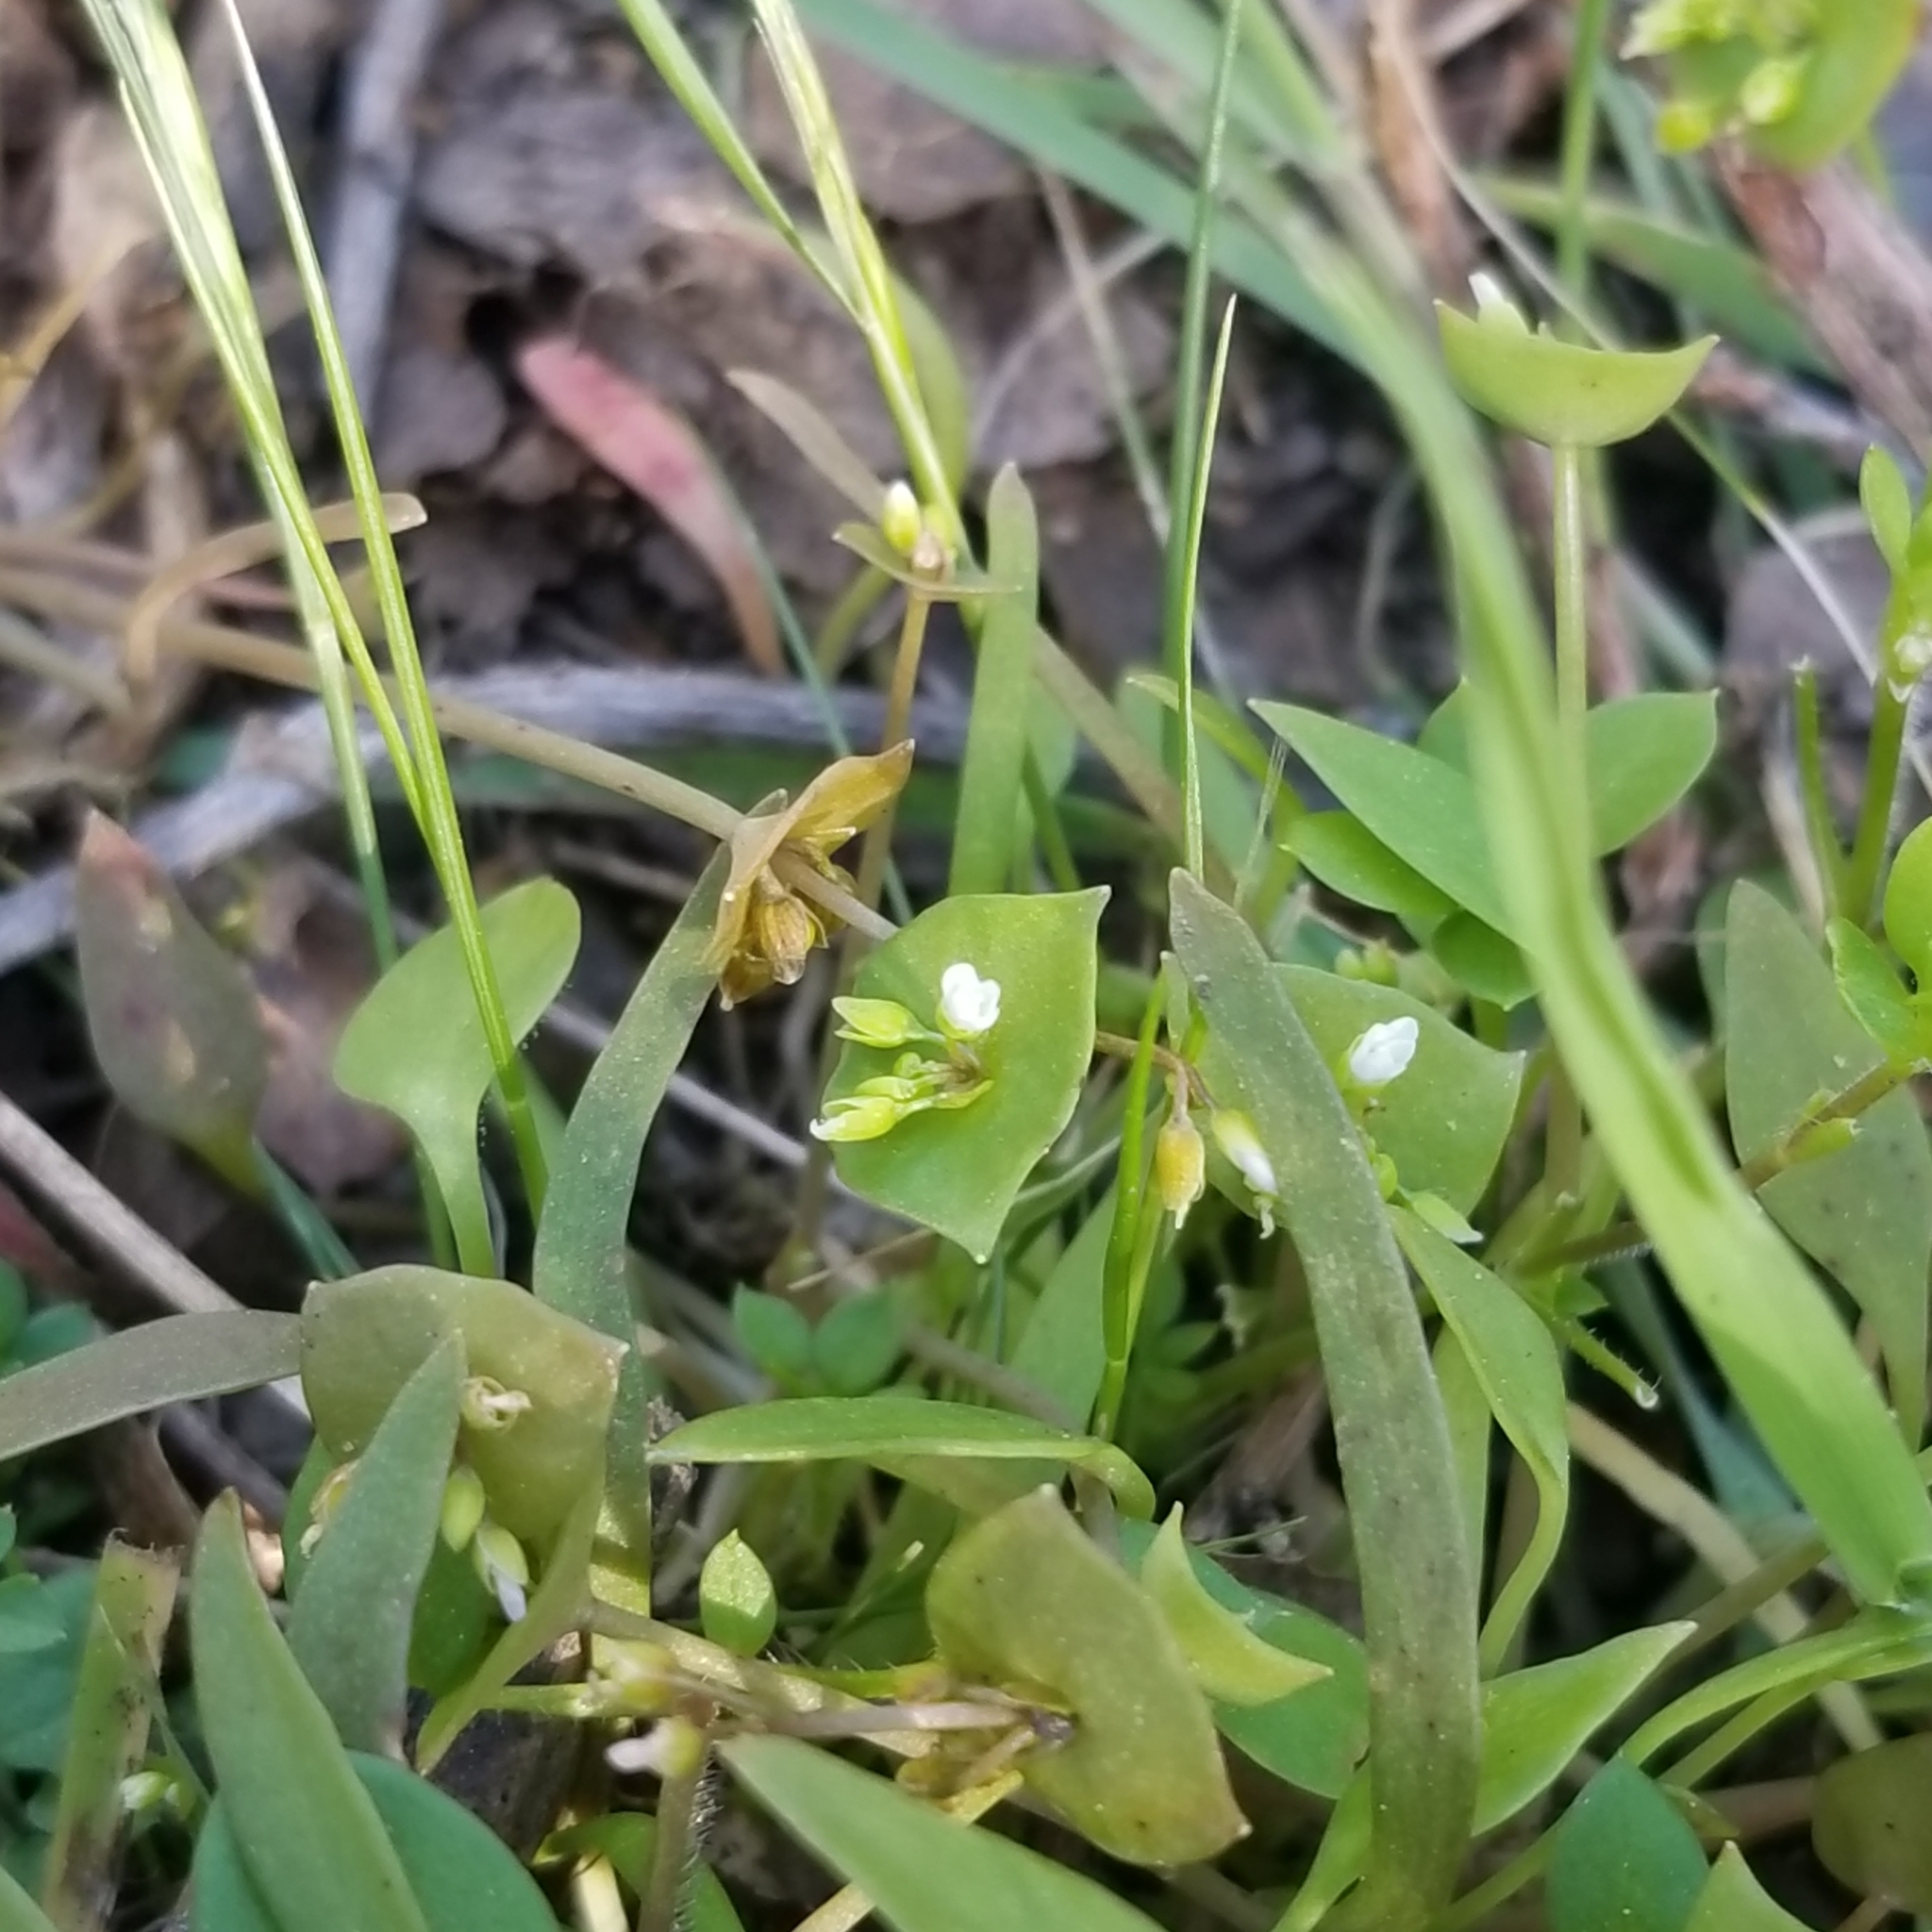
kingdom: Plantae
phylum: Tracheophyta
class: Magnoliopsida
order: Caryophyllales
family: Montiaceae
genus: Claytonia
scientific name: Claytonia parviflora
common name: Indian-lettuce
